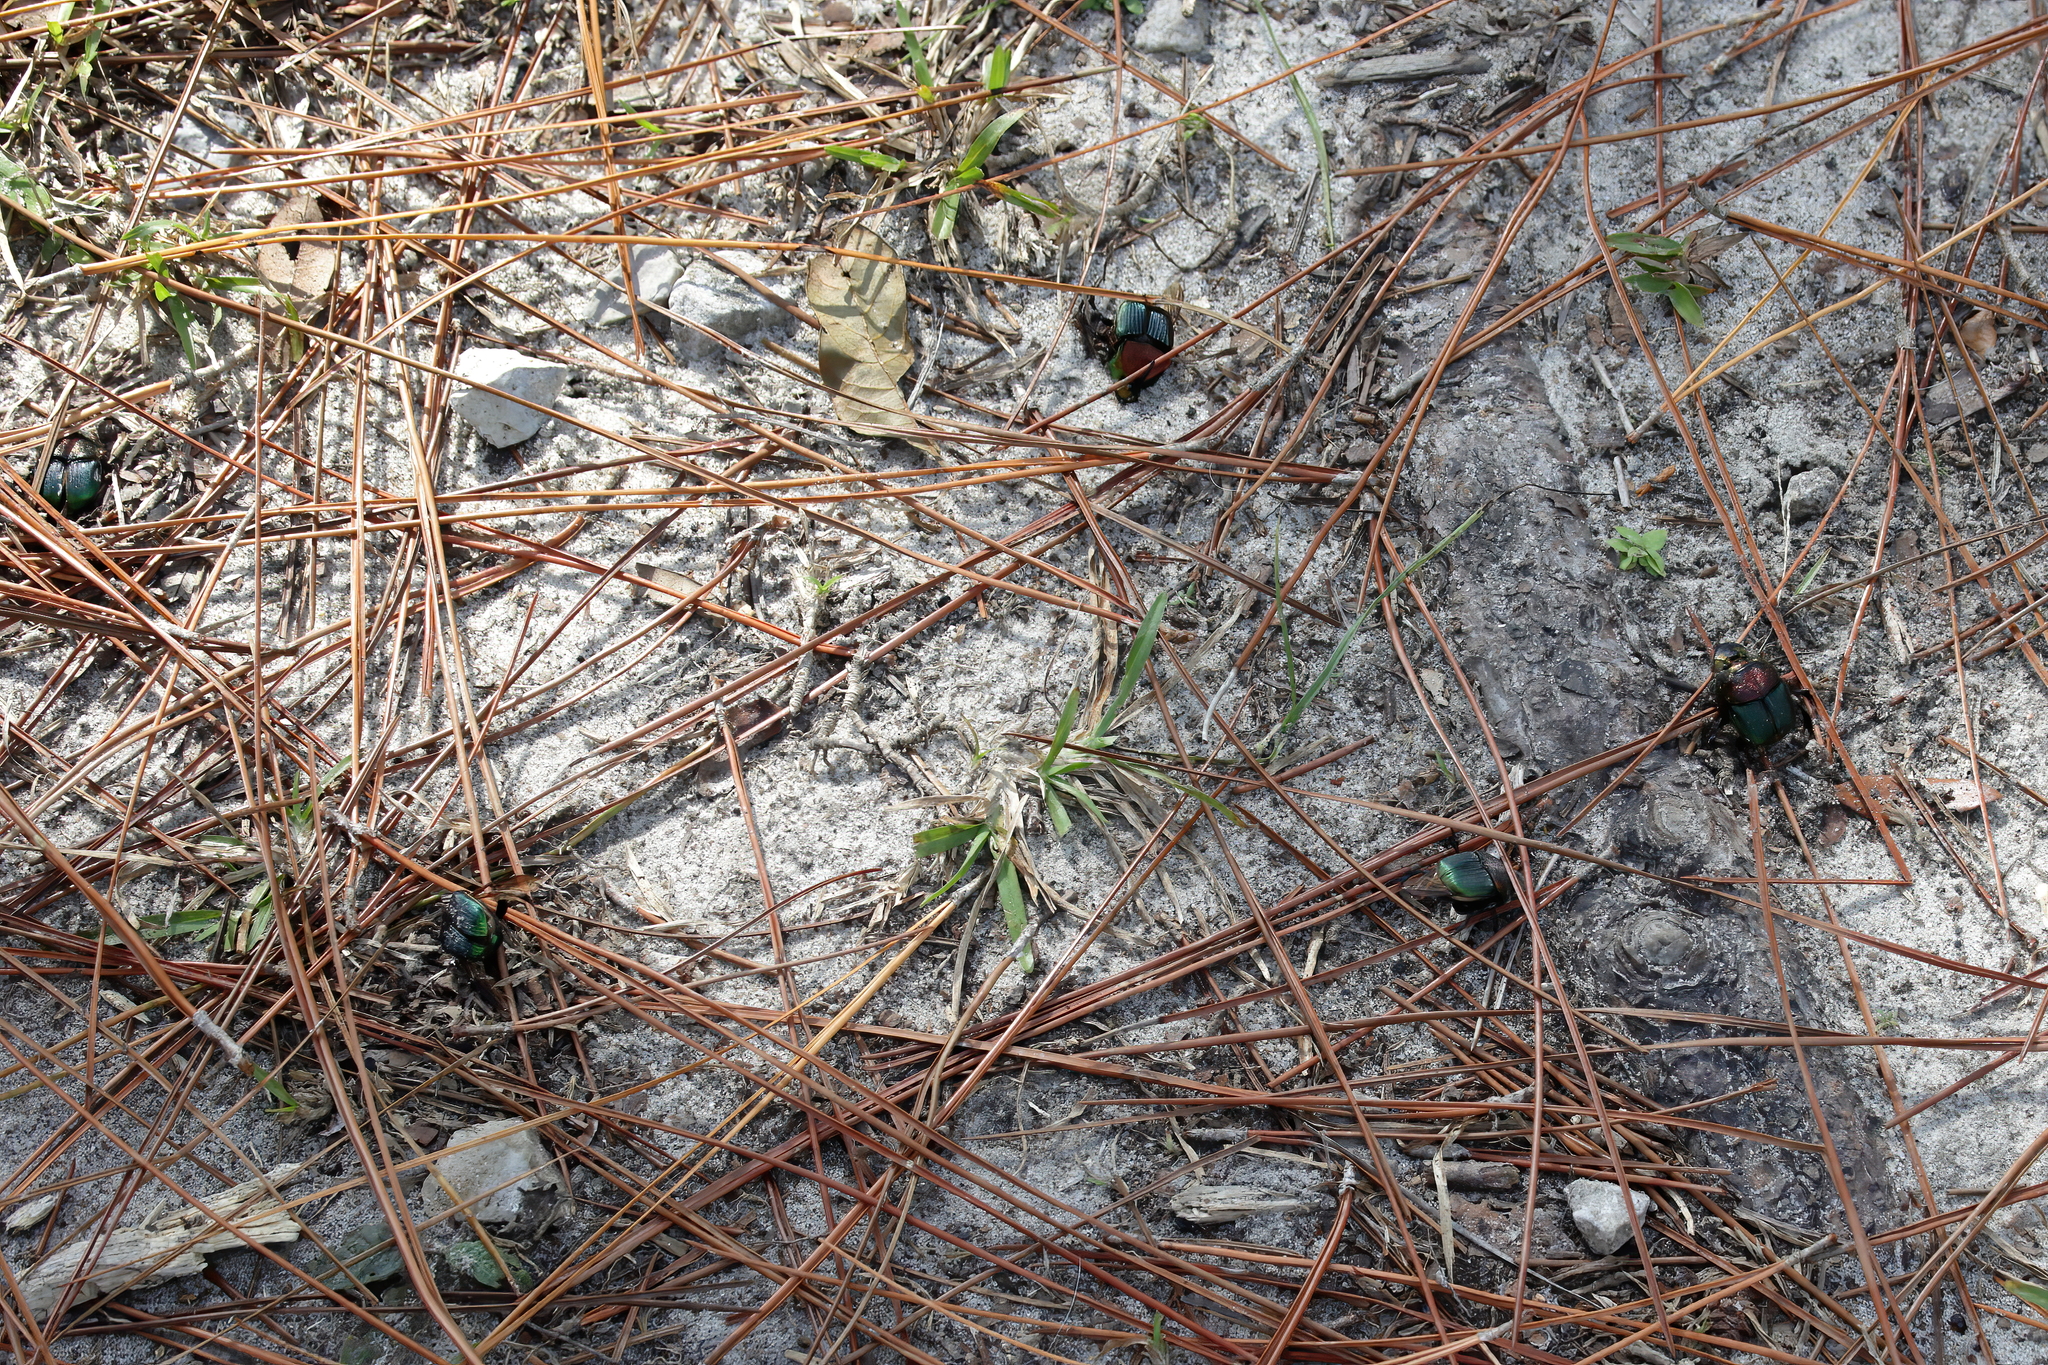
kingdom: Animalia
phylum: Arthropoda
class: Insecta
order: Coleoptera
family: Scarabaeidae
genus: Phanaeus
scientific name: Phanaeus vindex
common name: Rainbow scarab
